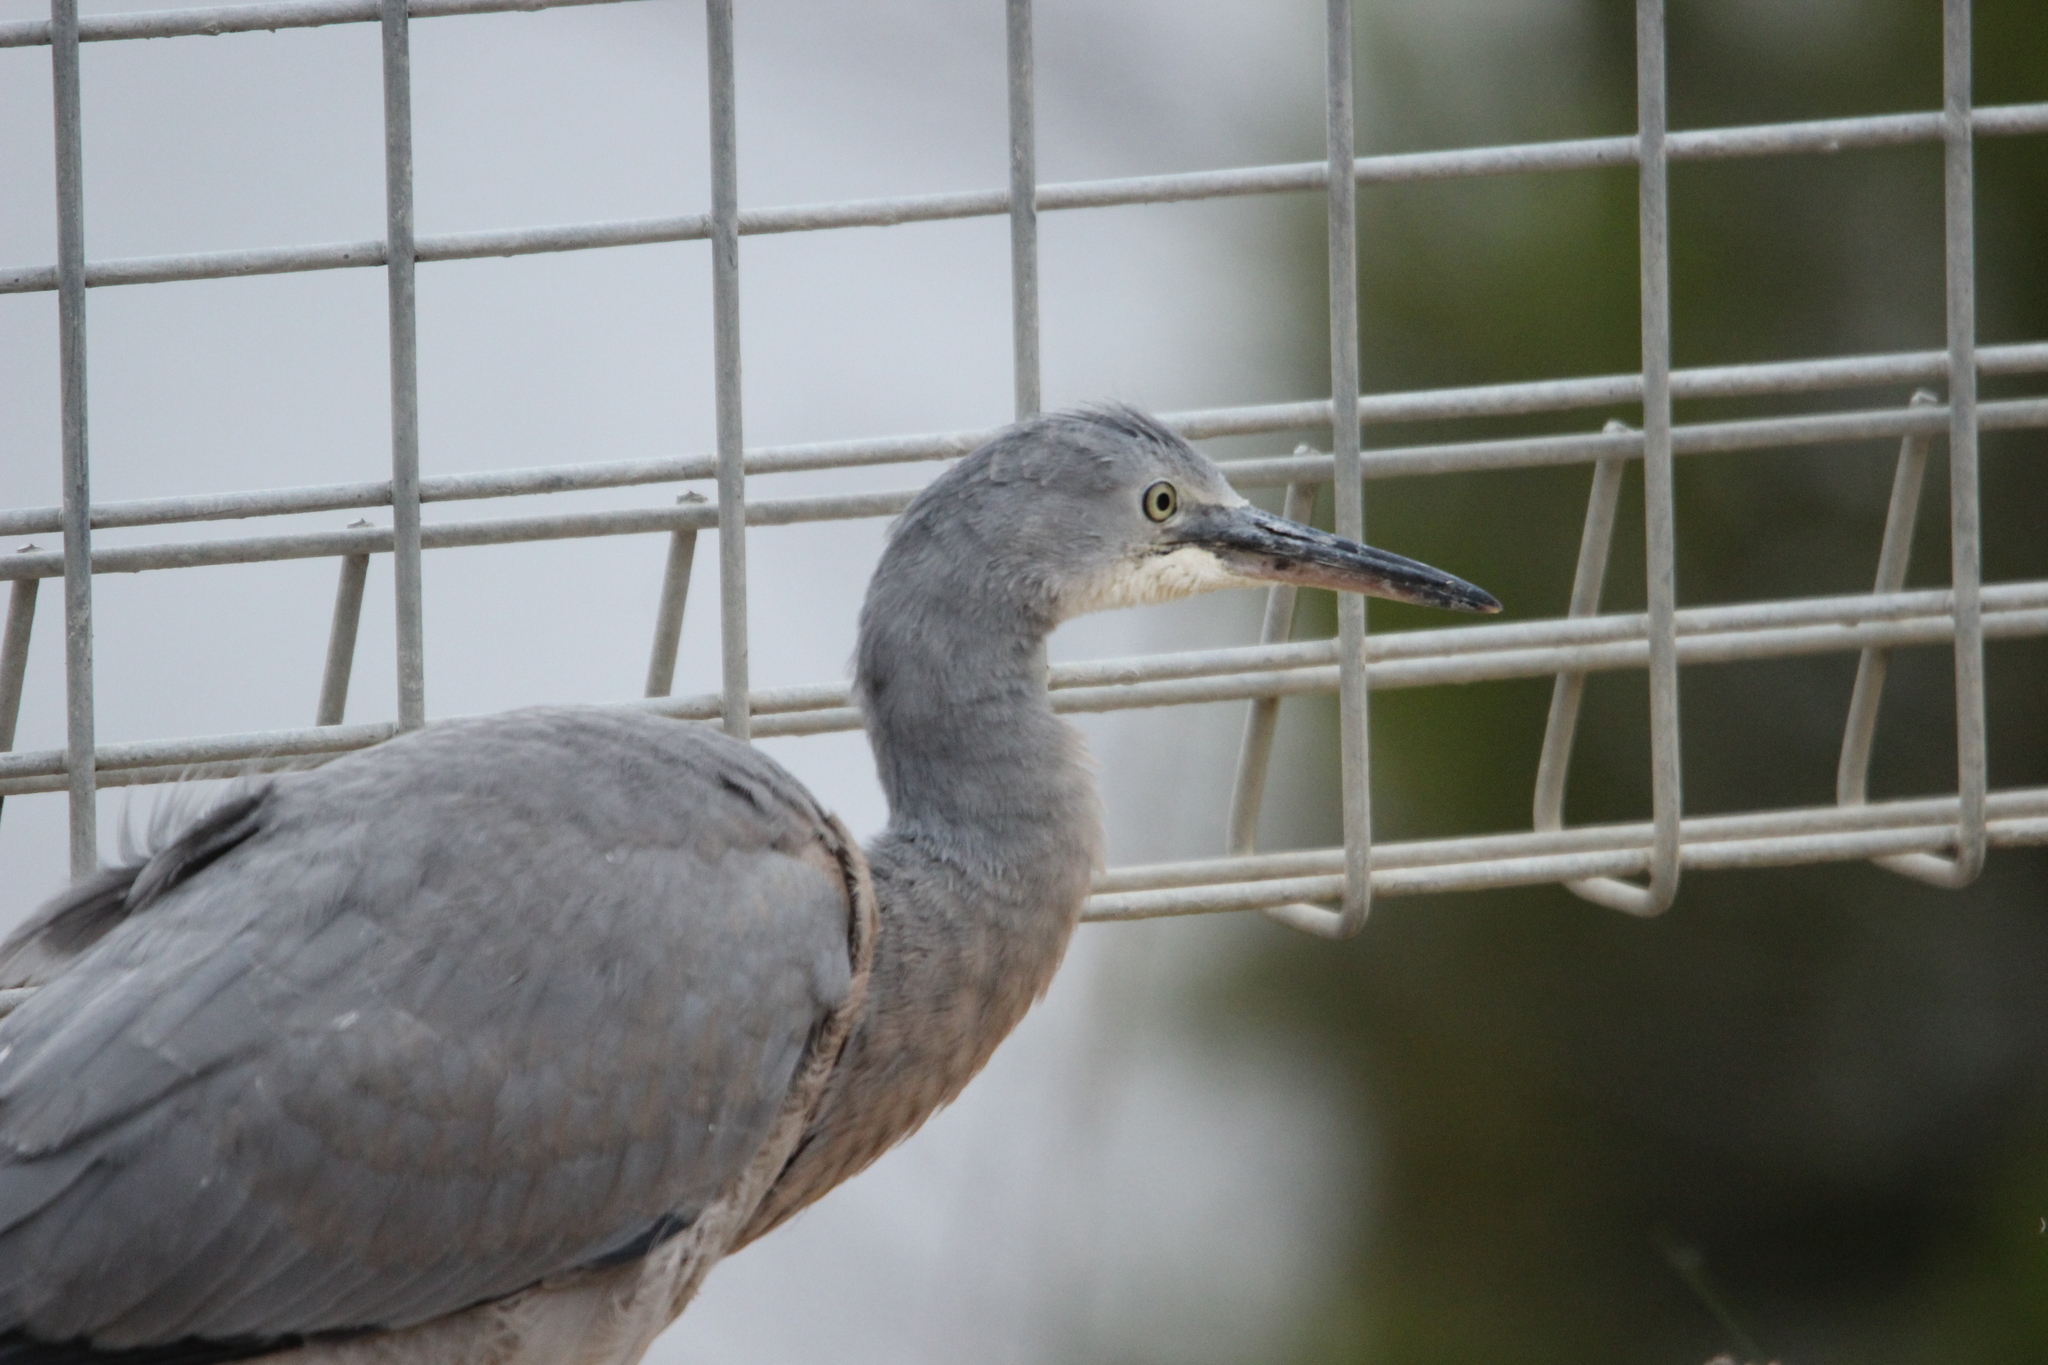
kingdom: Animalia
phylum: Chordata
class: Aves
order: Pelecaniformes
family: Ardeidae
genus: Egretta
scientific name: Egretta novaehollandiae
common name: White-faced heron
